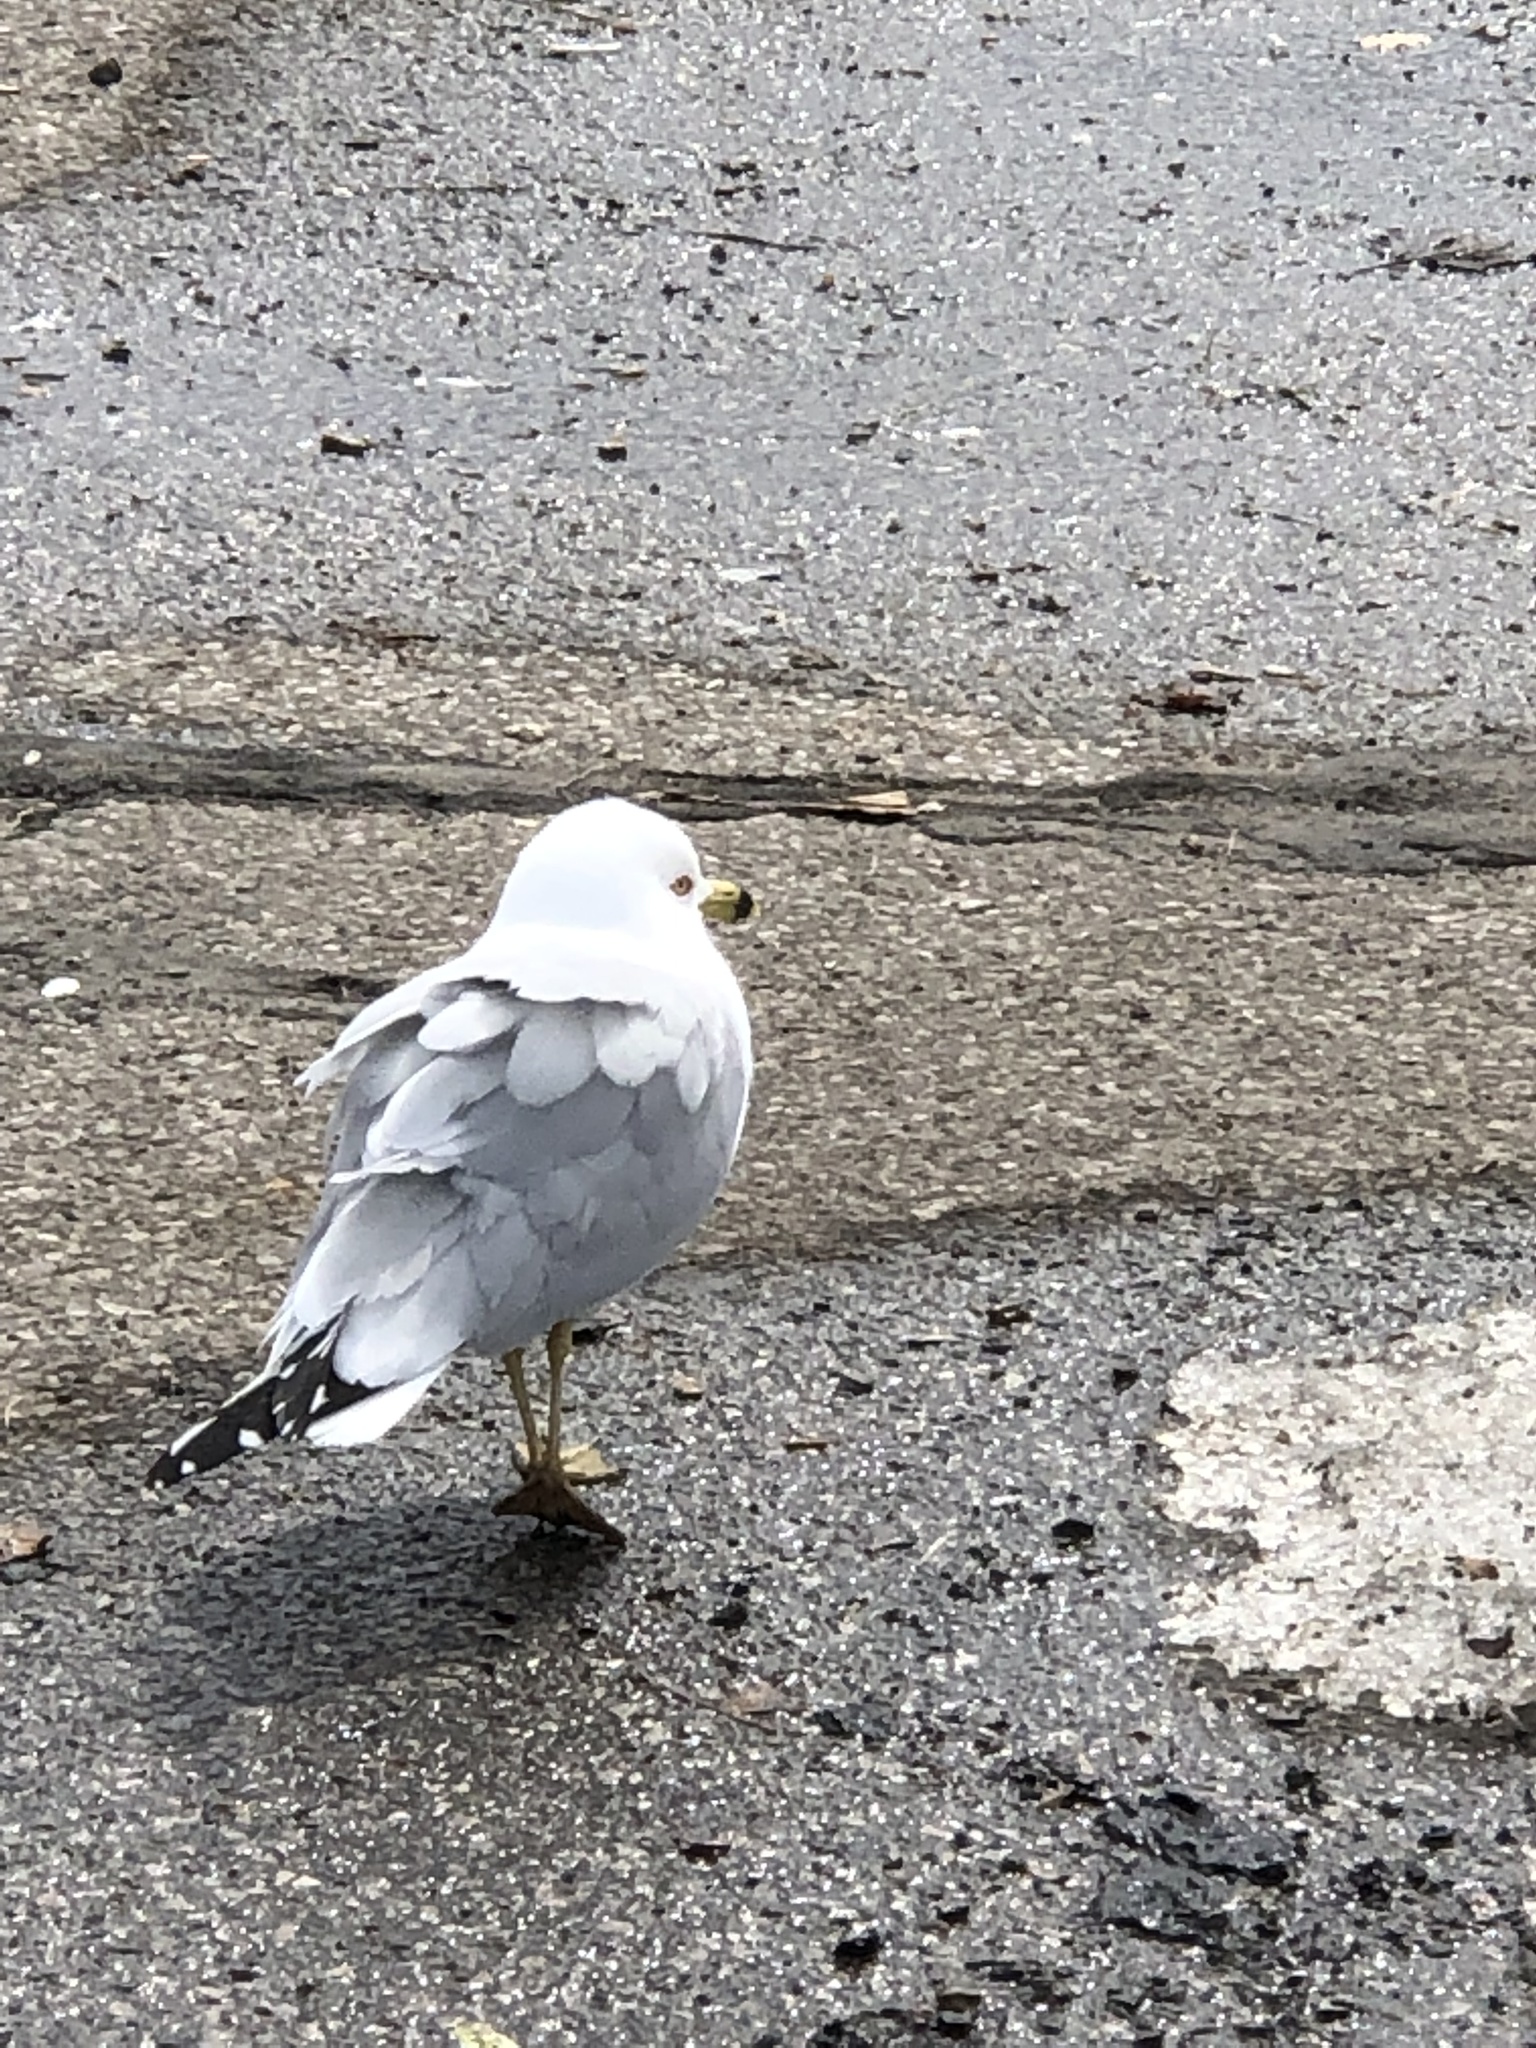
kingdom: Animalia
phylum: Chordata
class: Aves
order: Charadriiformes
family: Laridae
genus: Larus
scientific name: Larus delawarensis
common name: Ring-billed gull
